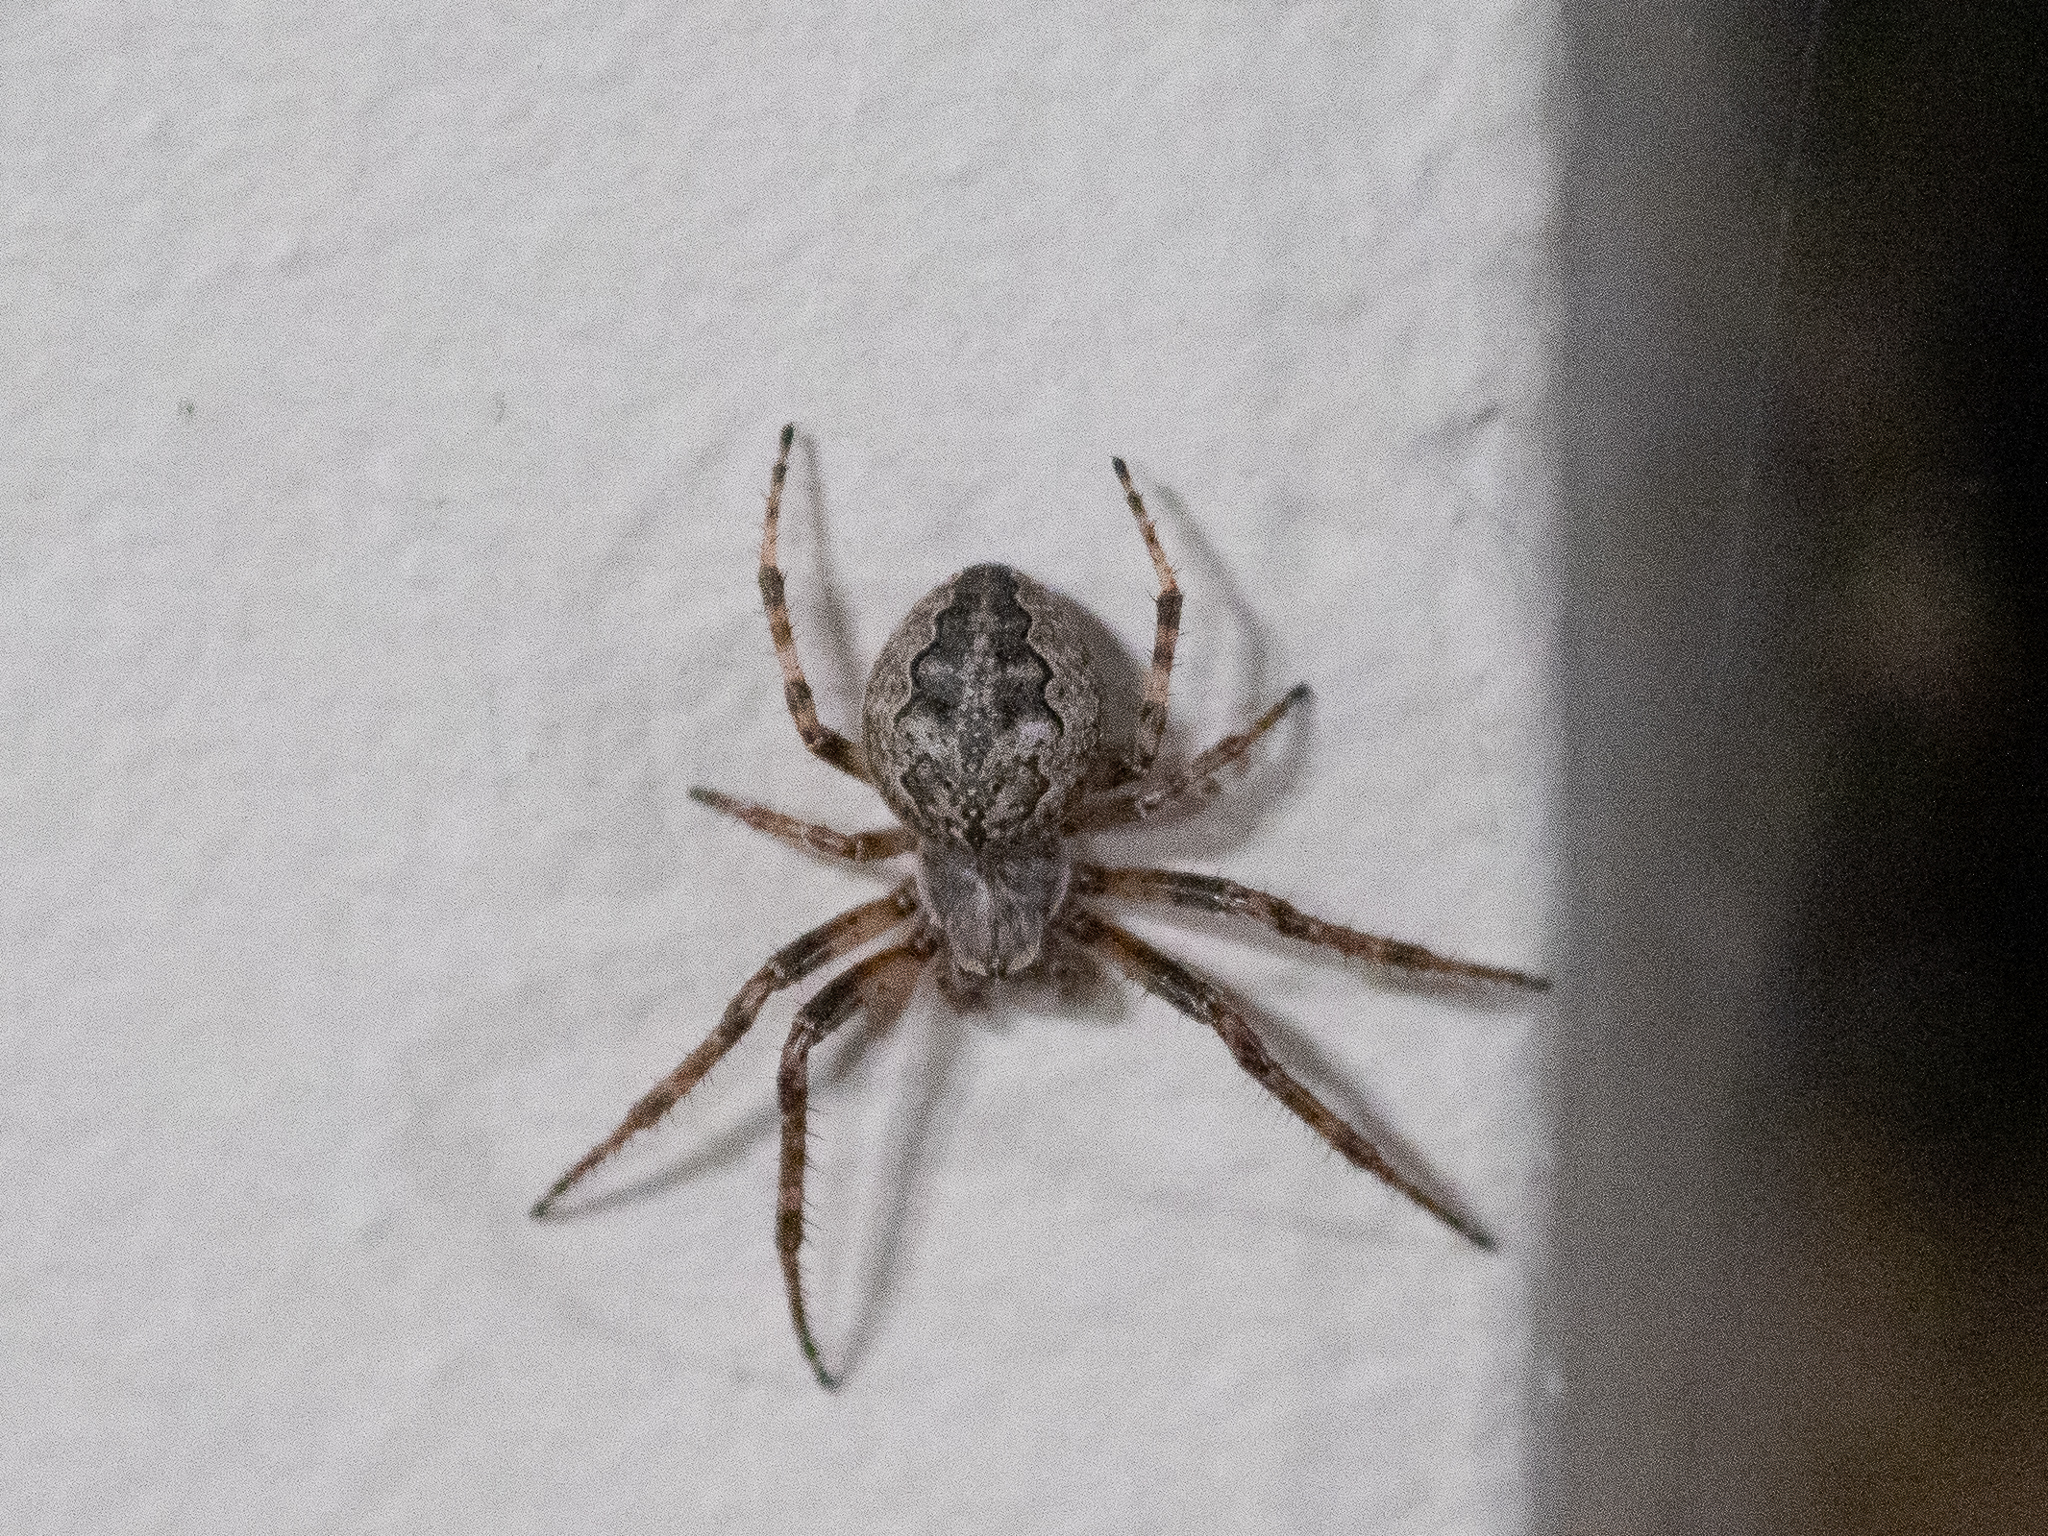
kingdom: Animalia
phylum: Arthropoda
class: Arachnida
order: Araneae
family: Araneidae
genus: Larinioides
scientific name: Larinioides ixobolus
